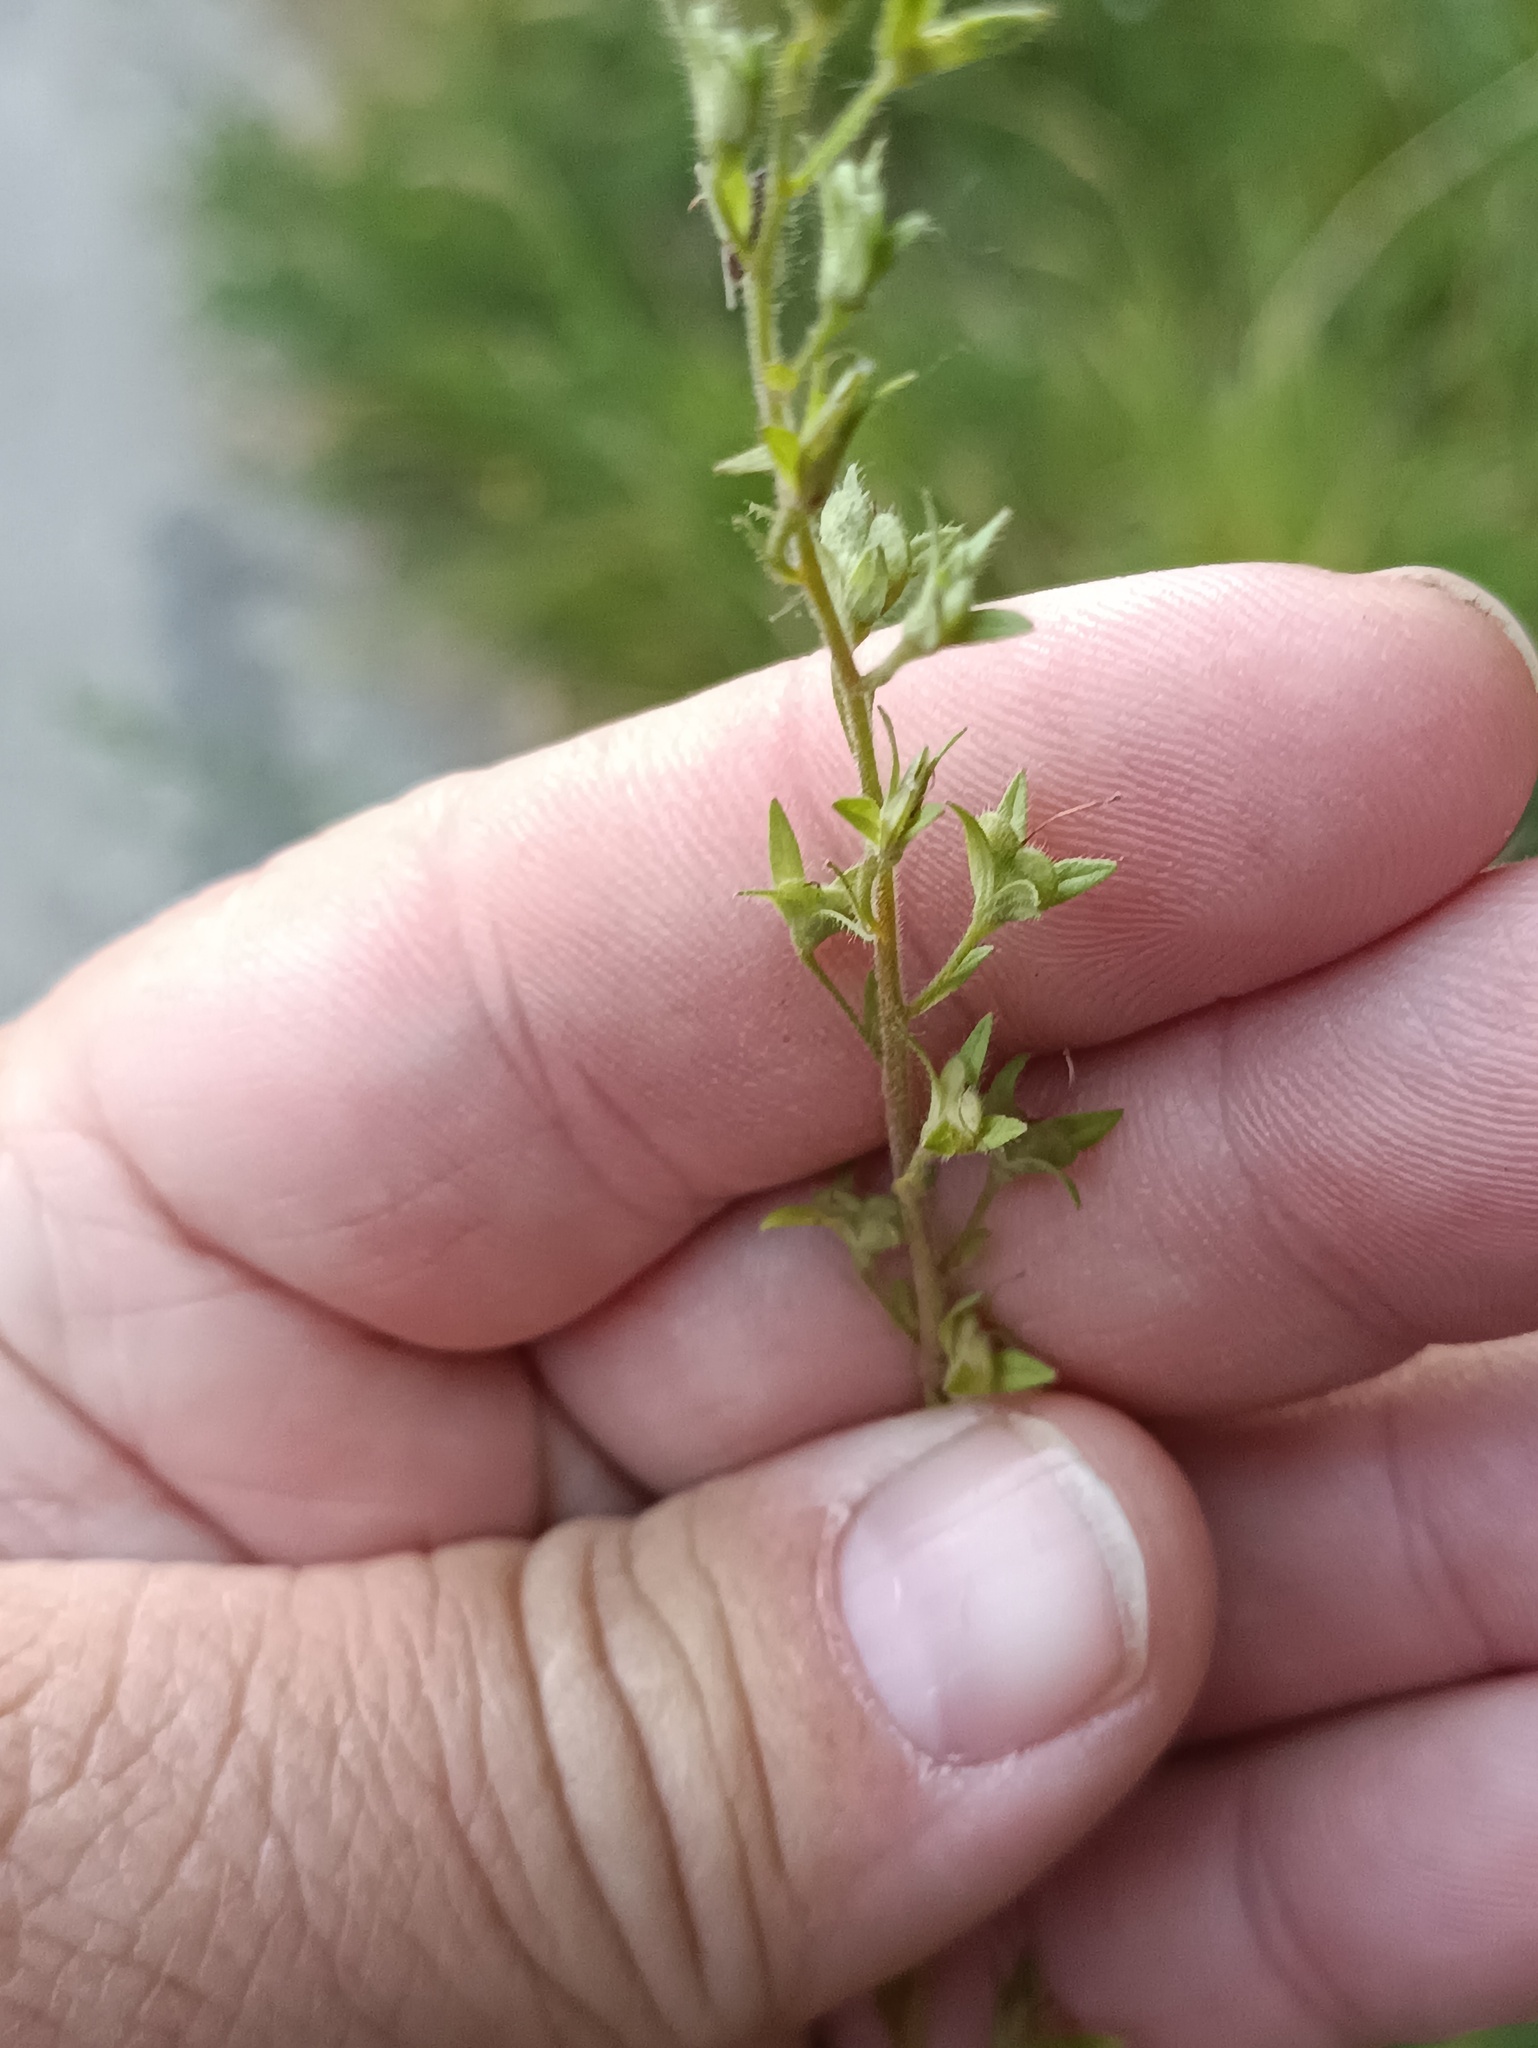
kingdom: Plantae
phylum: Tracheophyta
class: Magnoliopsida
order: Lamiales
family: Plantaginaceae
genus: Veronica
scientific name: Veronica chamaedrys
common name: Germander speedwell
